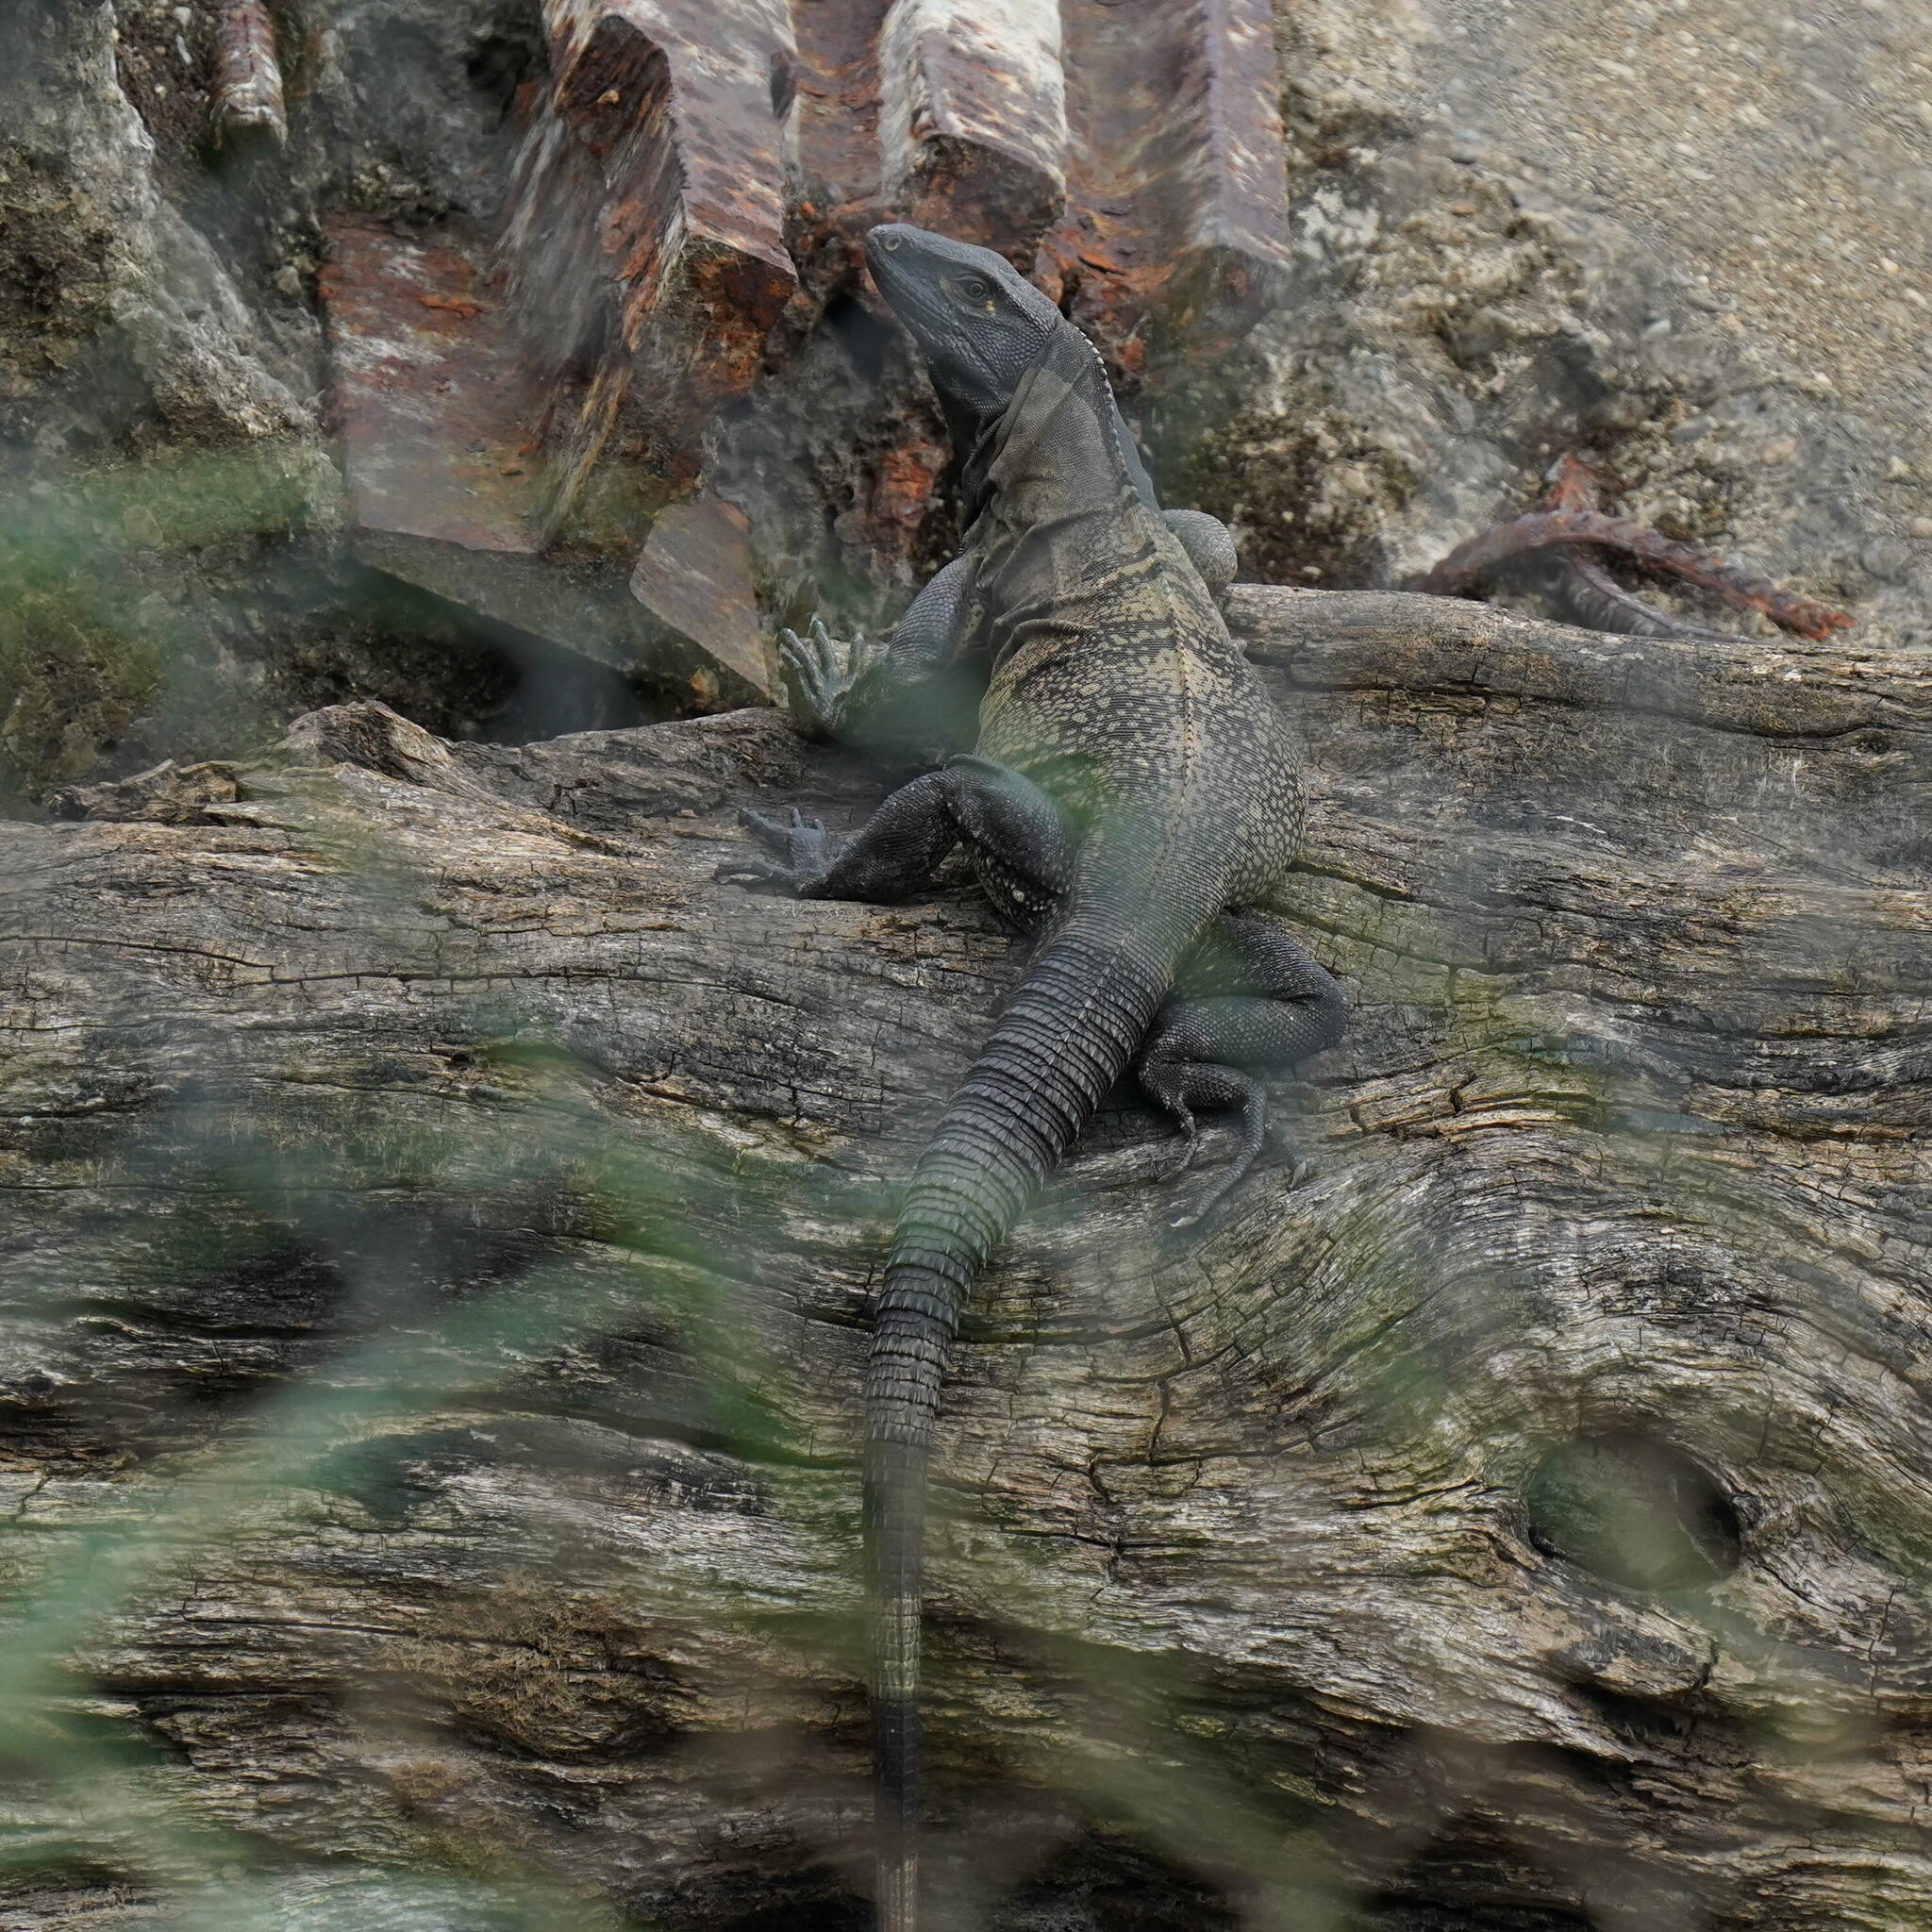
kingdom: Animalia
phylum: Chordata
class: Squamata
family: Iguanidae
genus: Ctenosaura
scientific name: Ctenosaura similis
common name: Black spiny-tailed iguana
